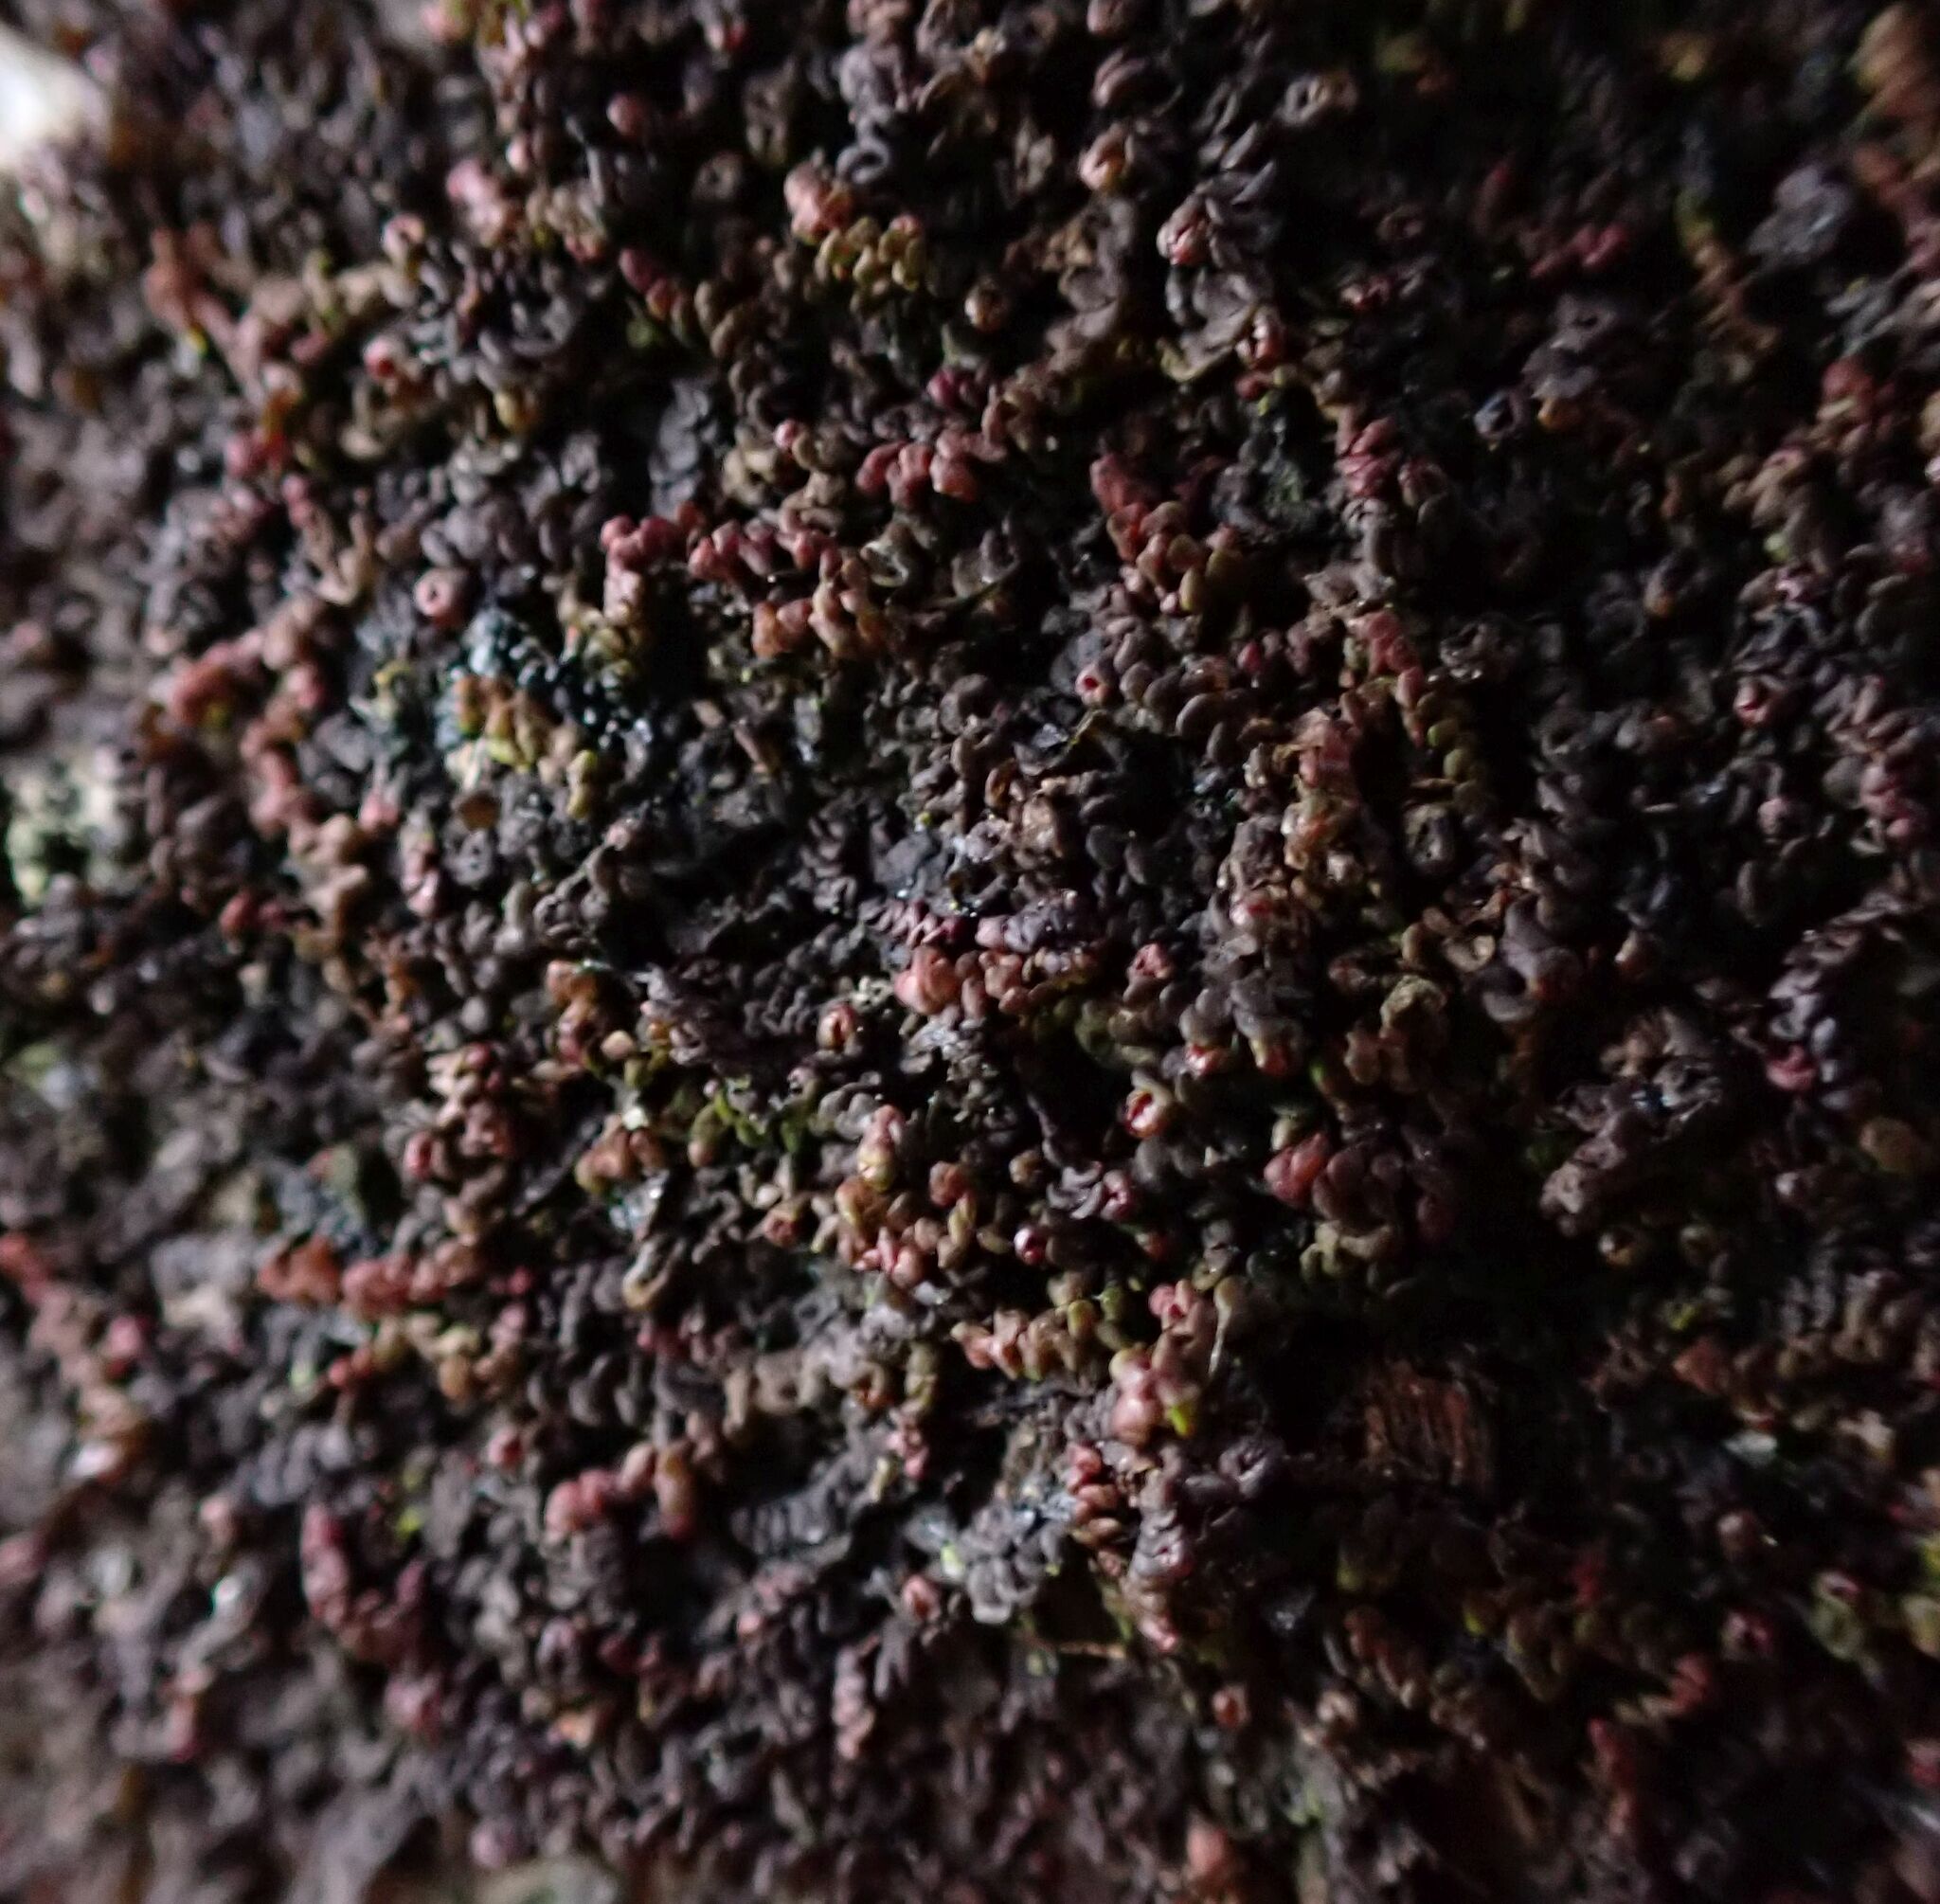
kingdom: Plantae
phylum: Marchantiophyta
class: Jungermanniopsida
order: Porellales
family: Frullaniaceae
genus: Frullania
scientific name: Frullania dilatata
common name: Dilated scalewort
